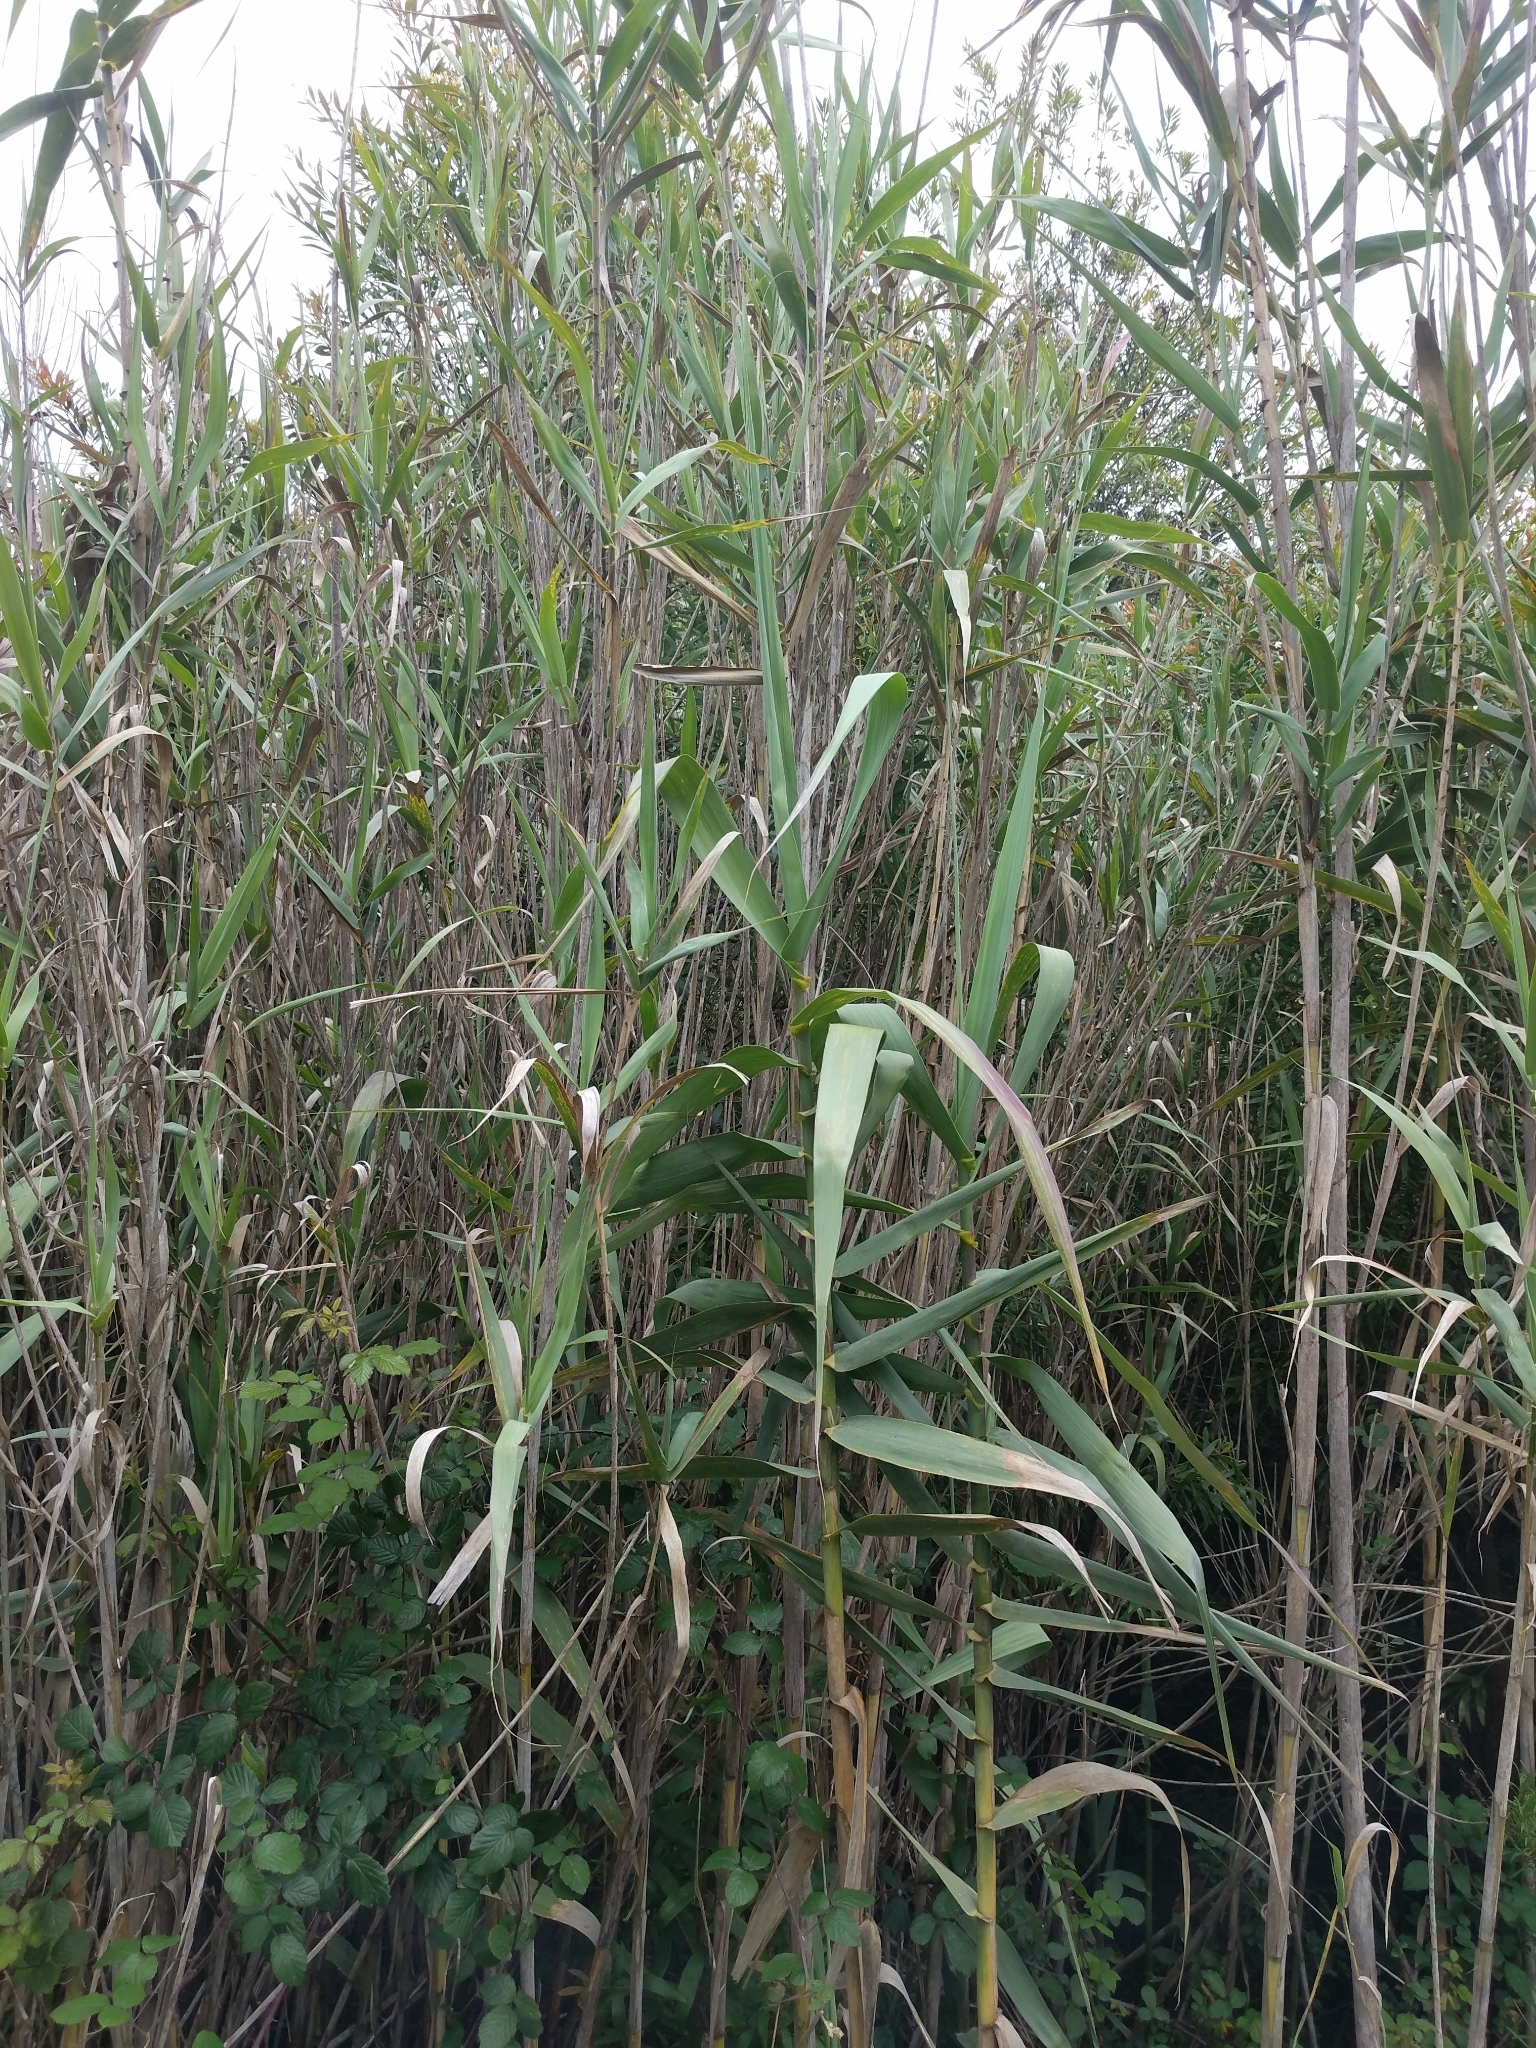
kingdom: Plantae
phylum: Tracheophyta
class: Liliopsida
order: Poales
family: Poaceae
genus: Arundo
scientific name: Arundo donax
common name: Giant reed
